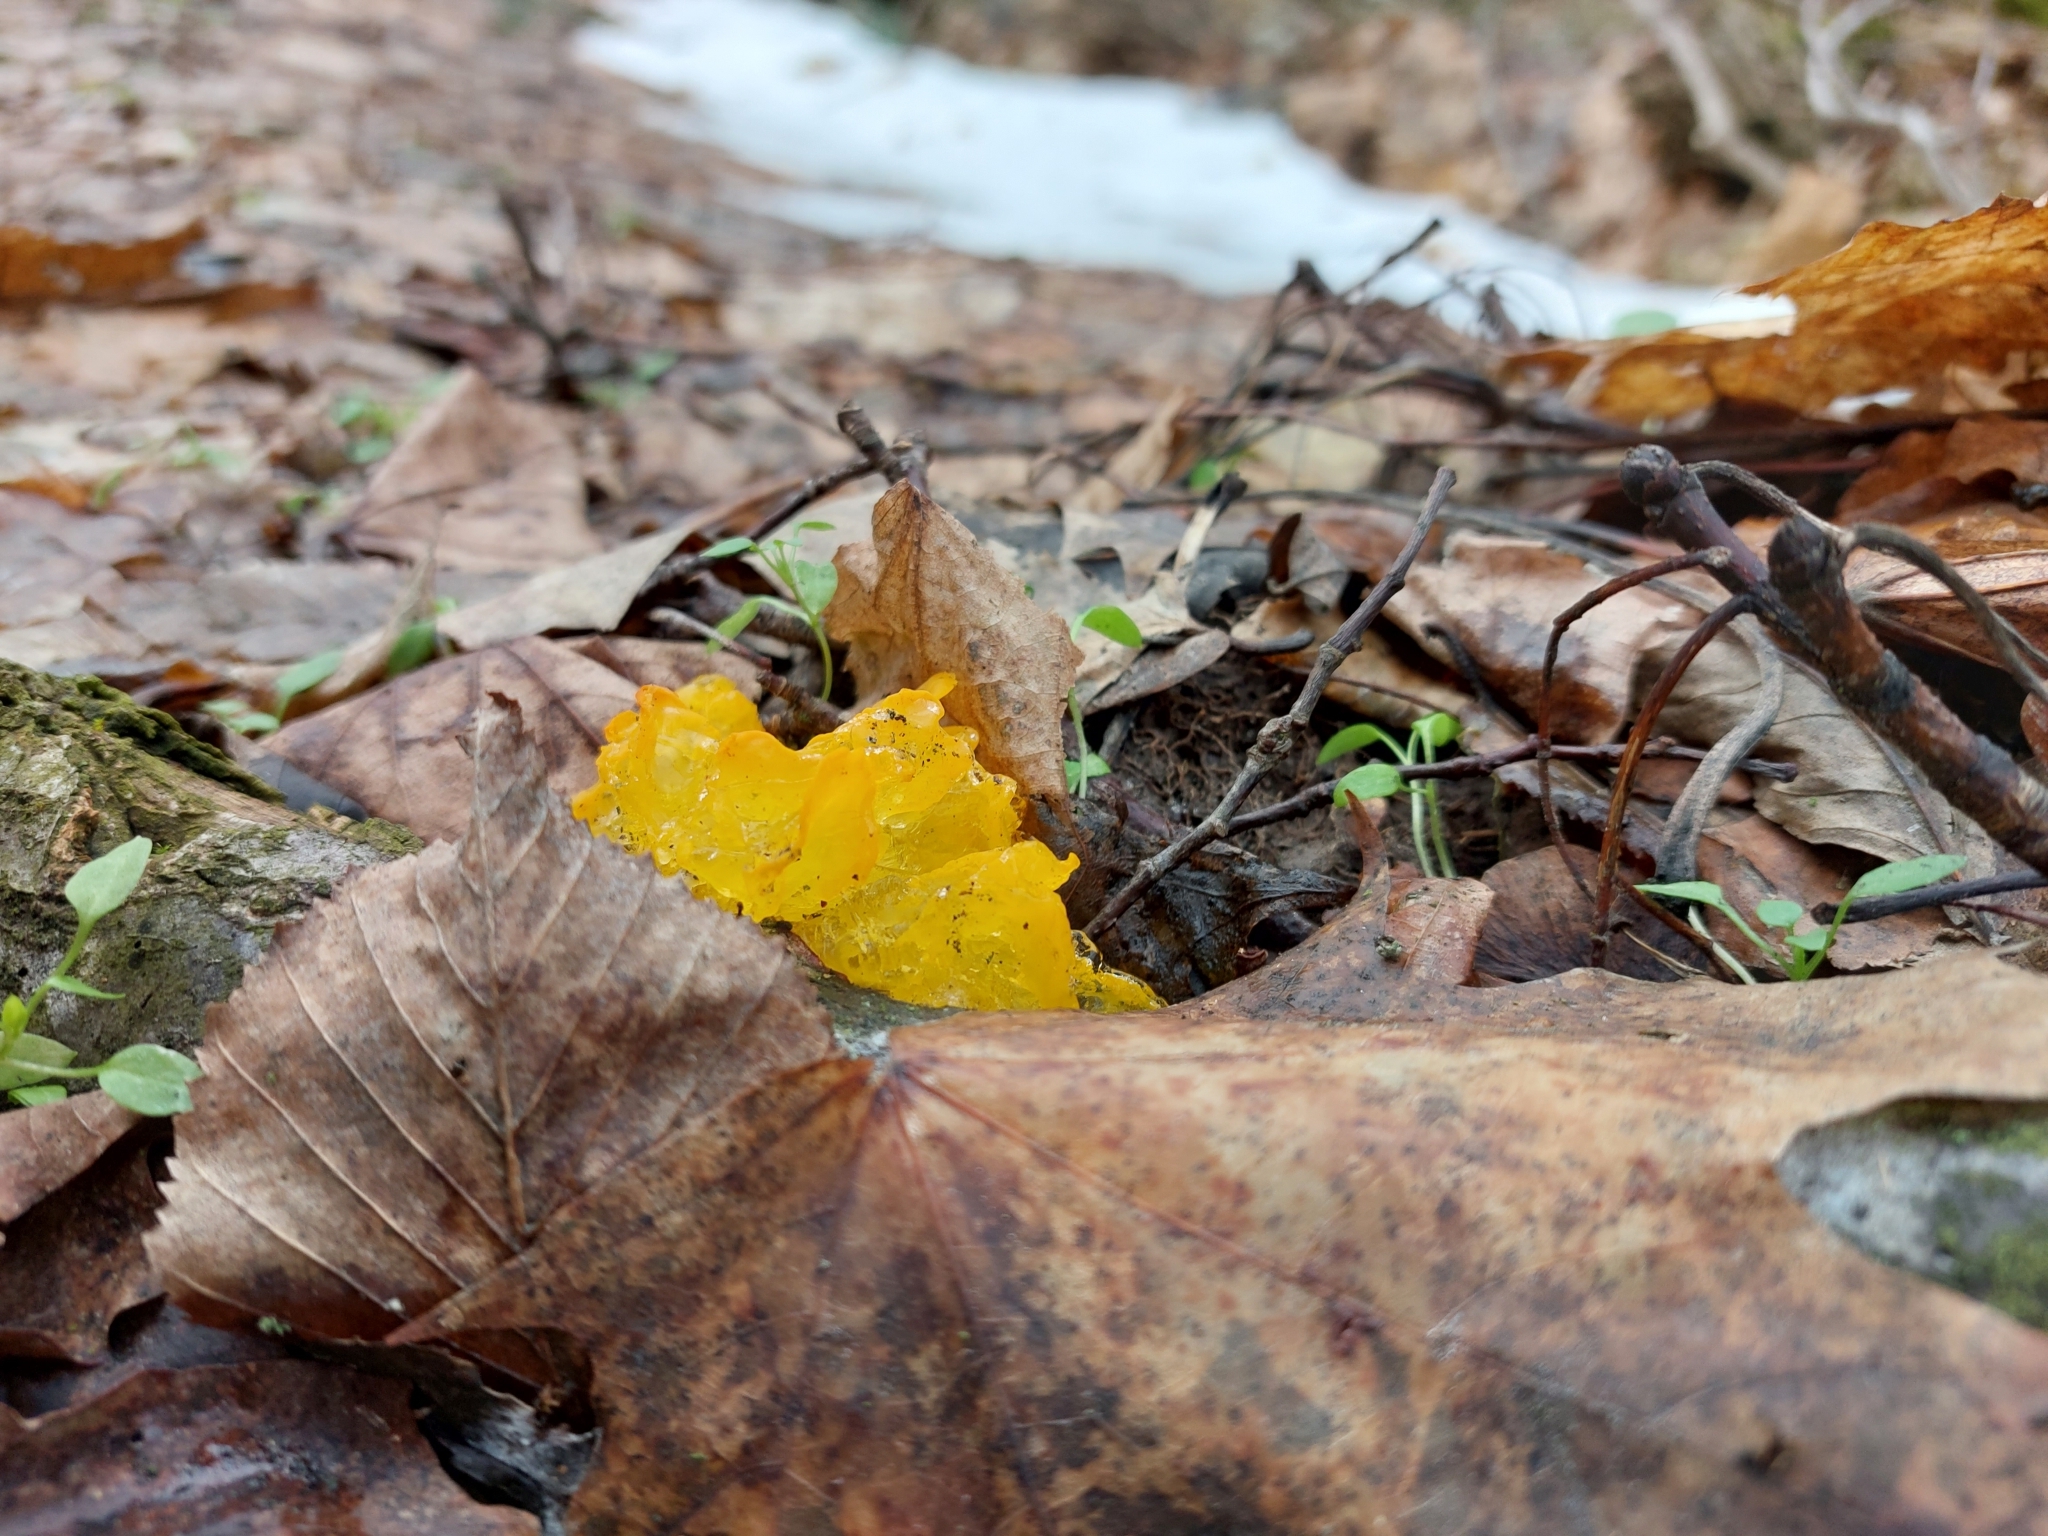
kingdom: Fungi
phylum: Basidiomycota
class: Tremellomycetes
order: Tremellales
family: Tremellaceae
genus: Tremella
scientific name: Tremella mesenterica
